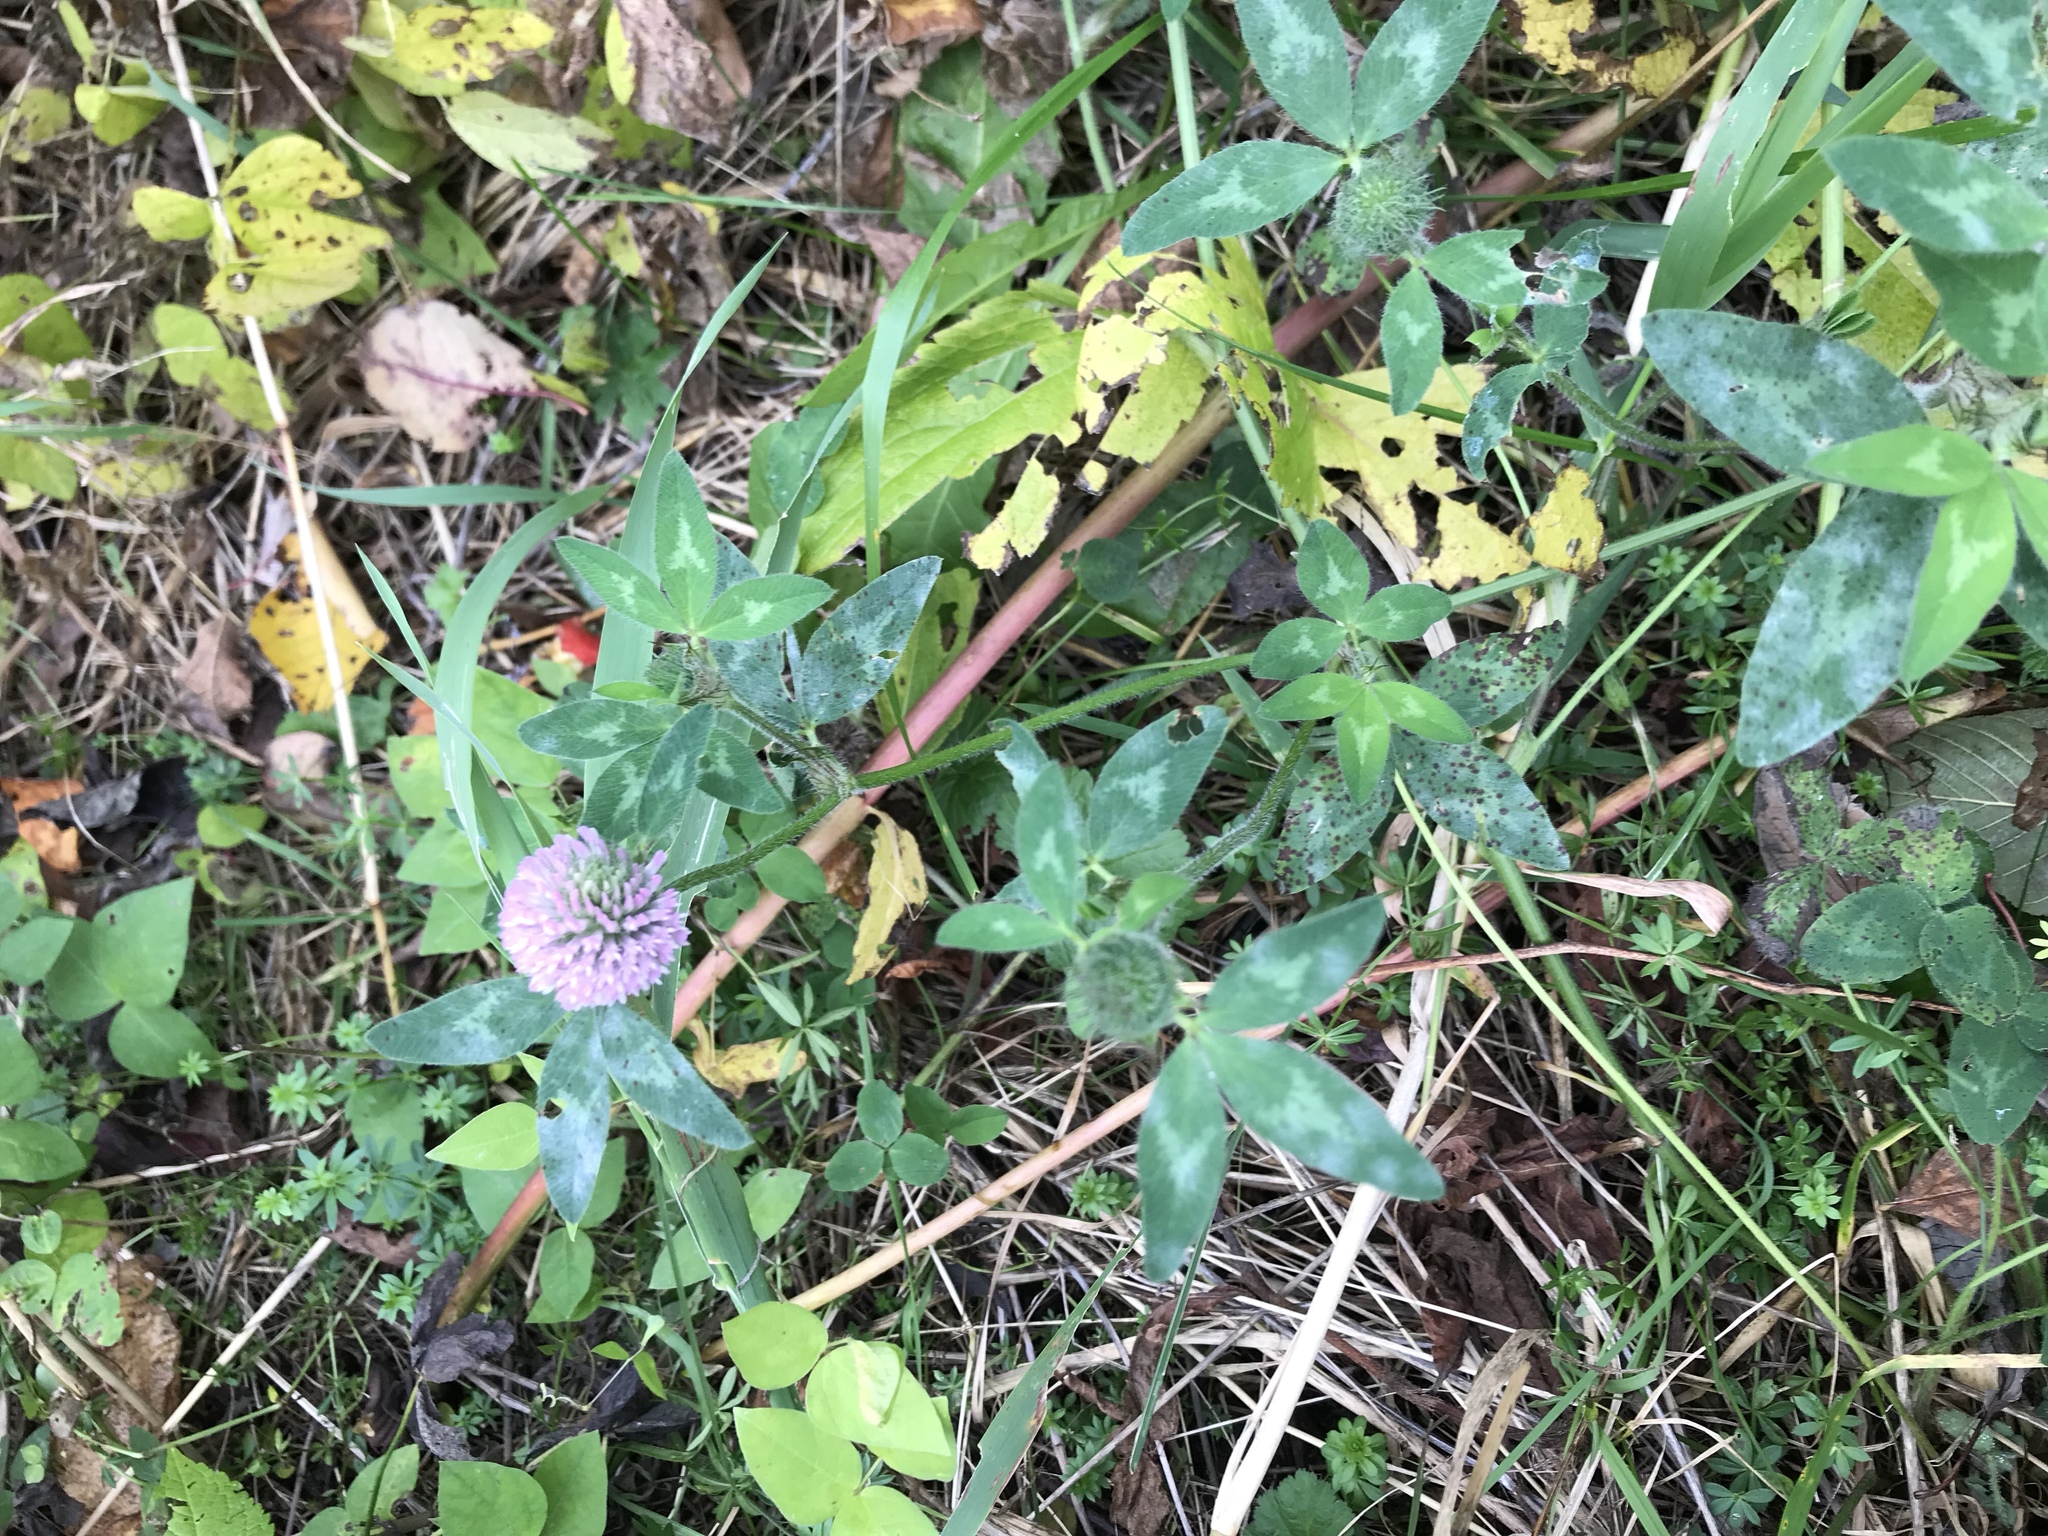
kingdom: Plantae
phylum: Tracheophyta
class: Magnoliopsida
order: Fabales
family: Fabaceae
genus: Trifolium
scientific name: Trifolium pratense
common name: Red clover
